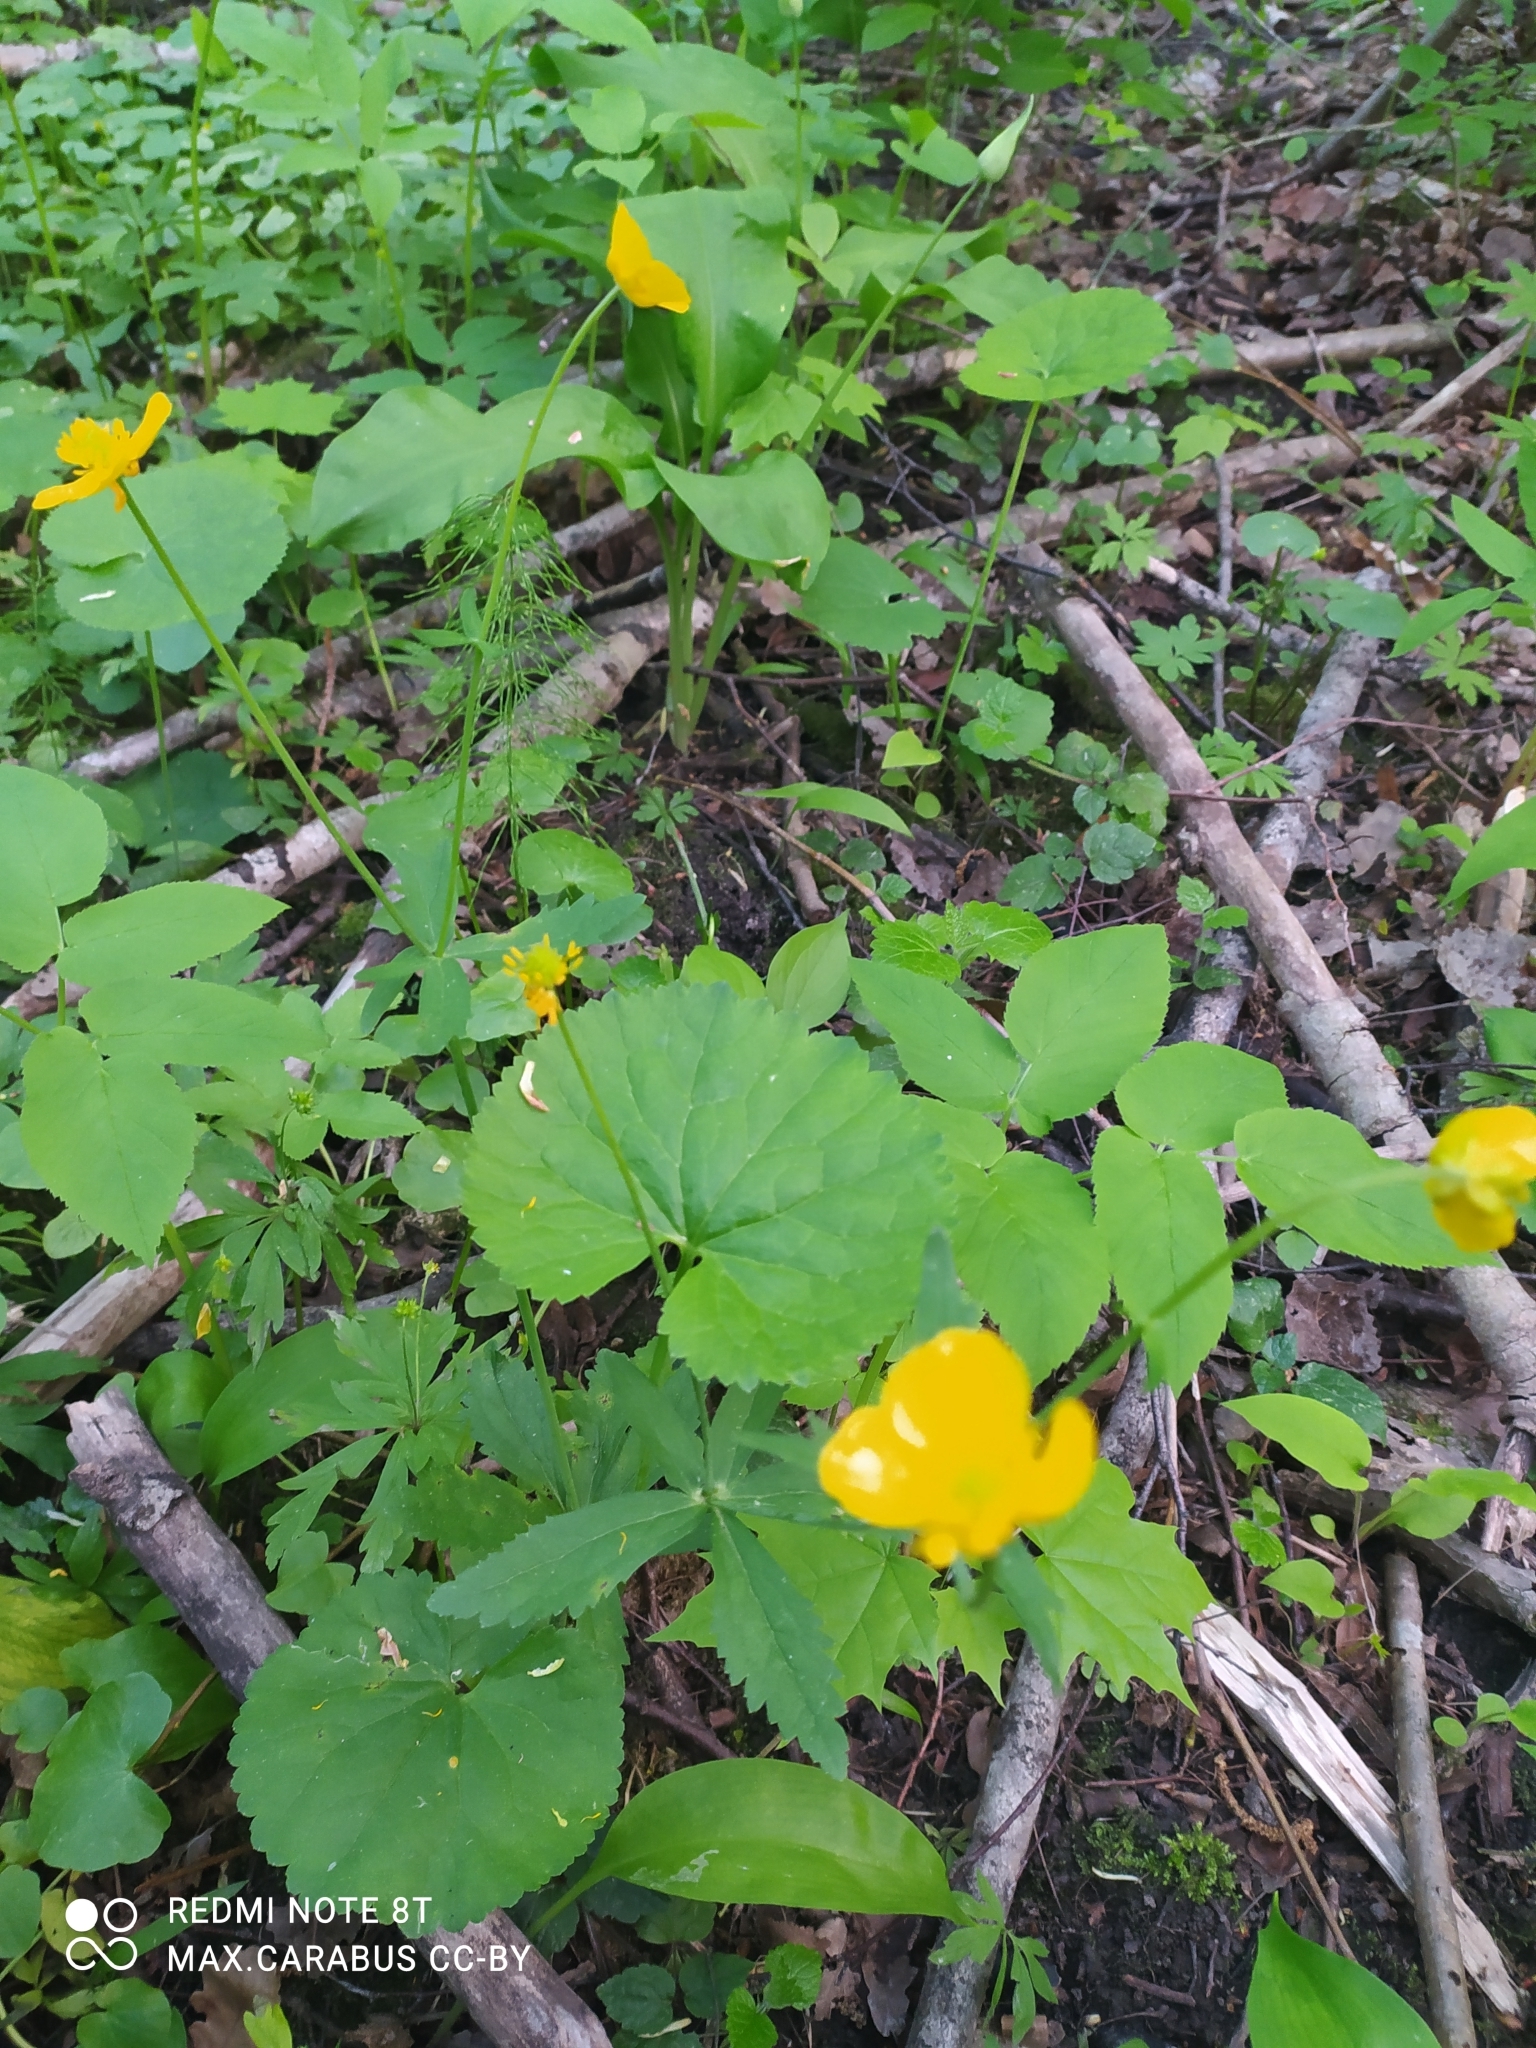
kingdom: Plantae
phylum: Tracheophyta
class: Magnoliopsida
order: Ranunculales
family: Ranunculaceae
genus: Ranunculus
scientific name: Ranunculus cassubicus
